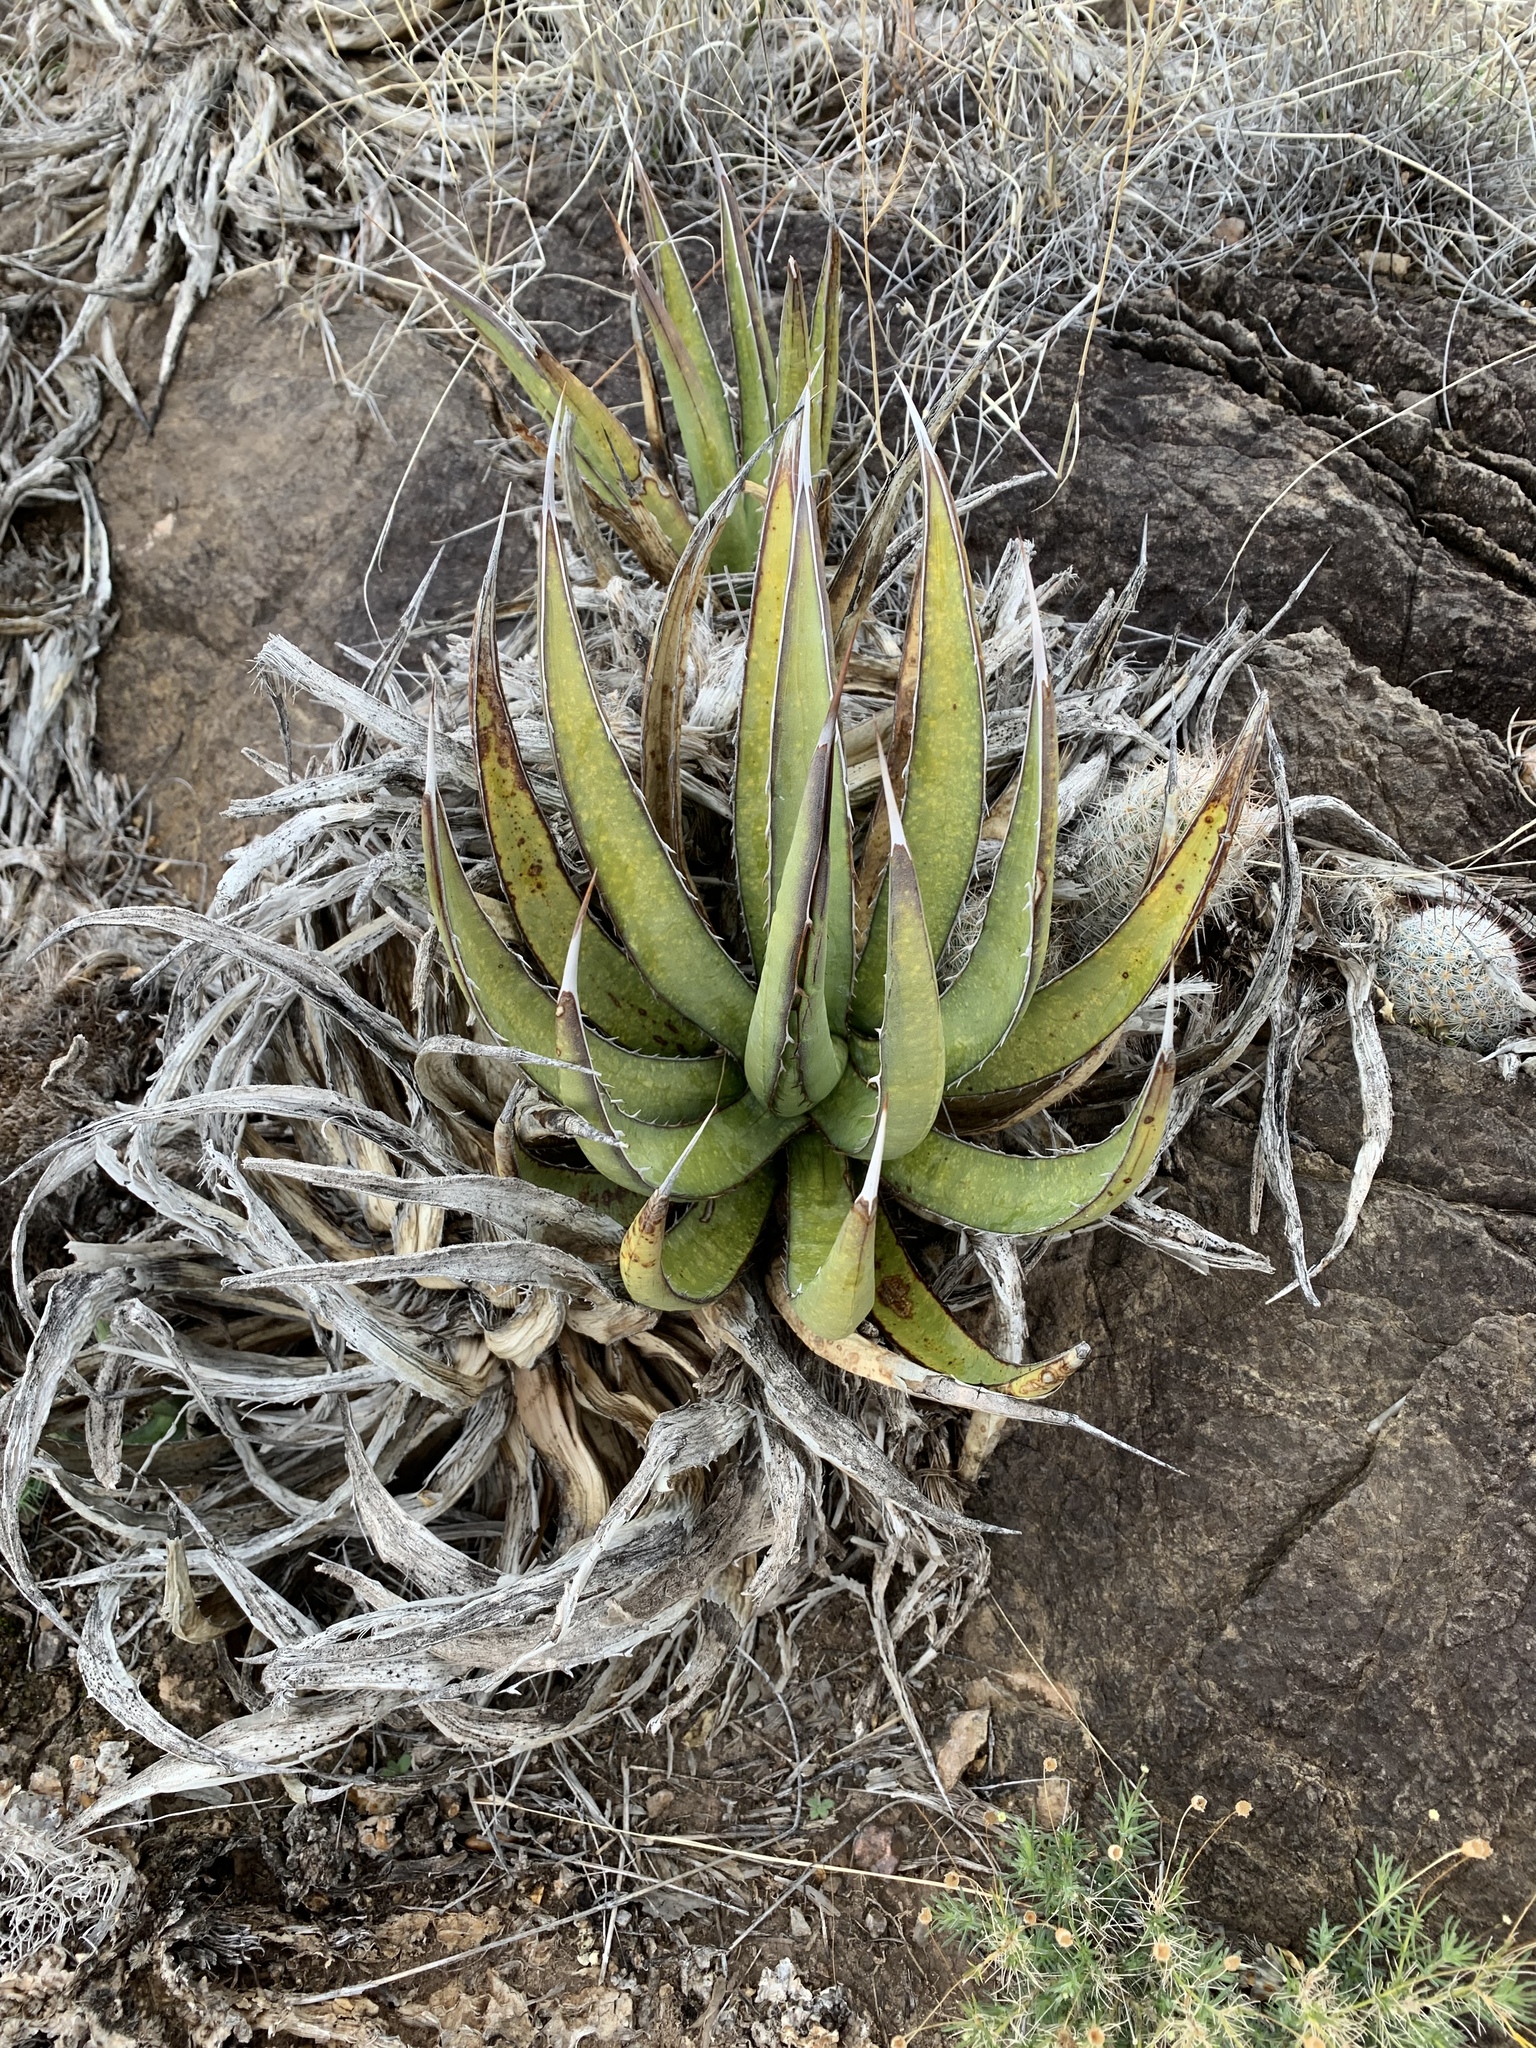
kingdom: Plantae
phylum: Tracheophyta
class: Liliopsida
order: Asparagales
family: Asparagaceae
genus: Agave
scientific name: Agave lechuguilla
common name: Lecheguilla agave
